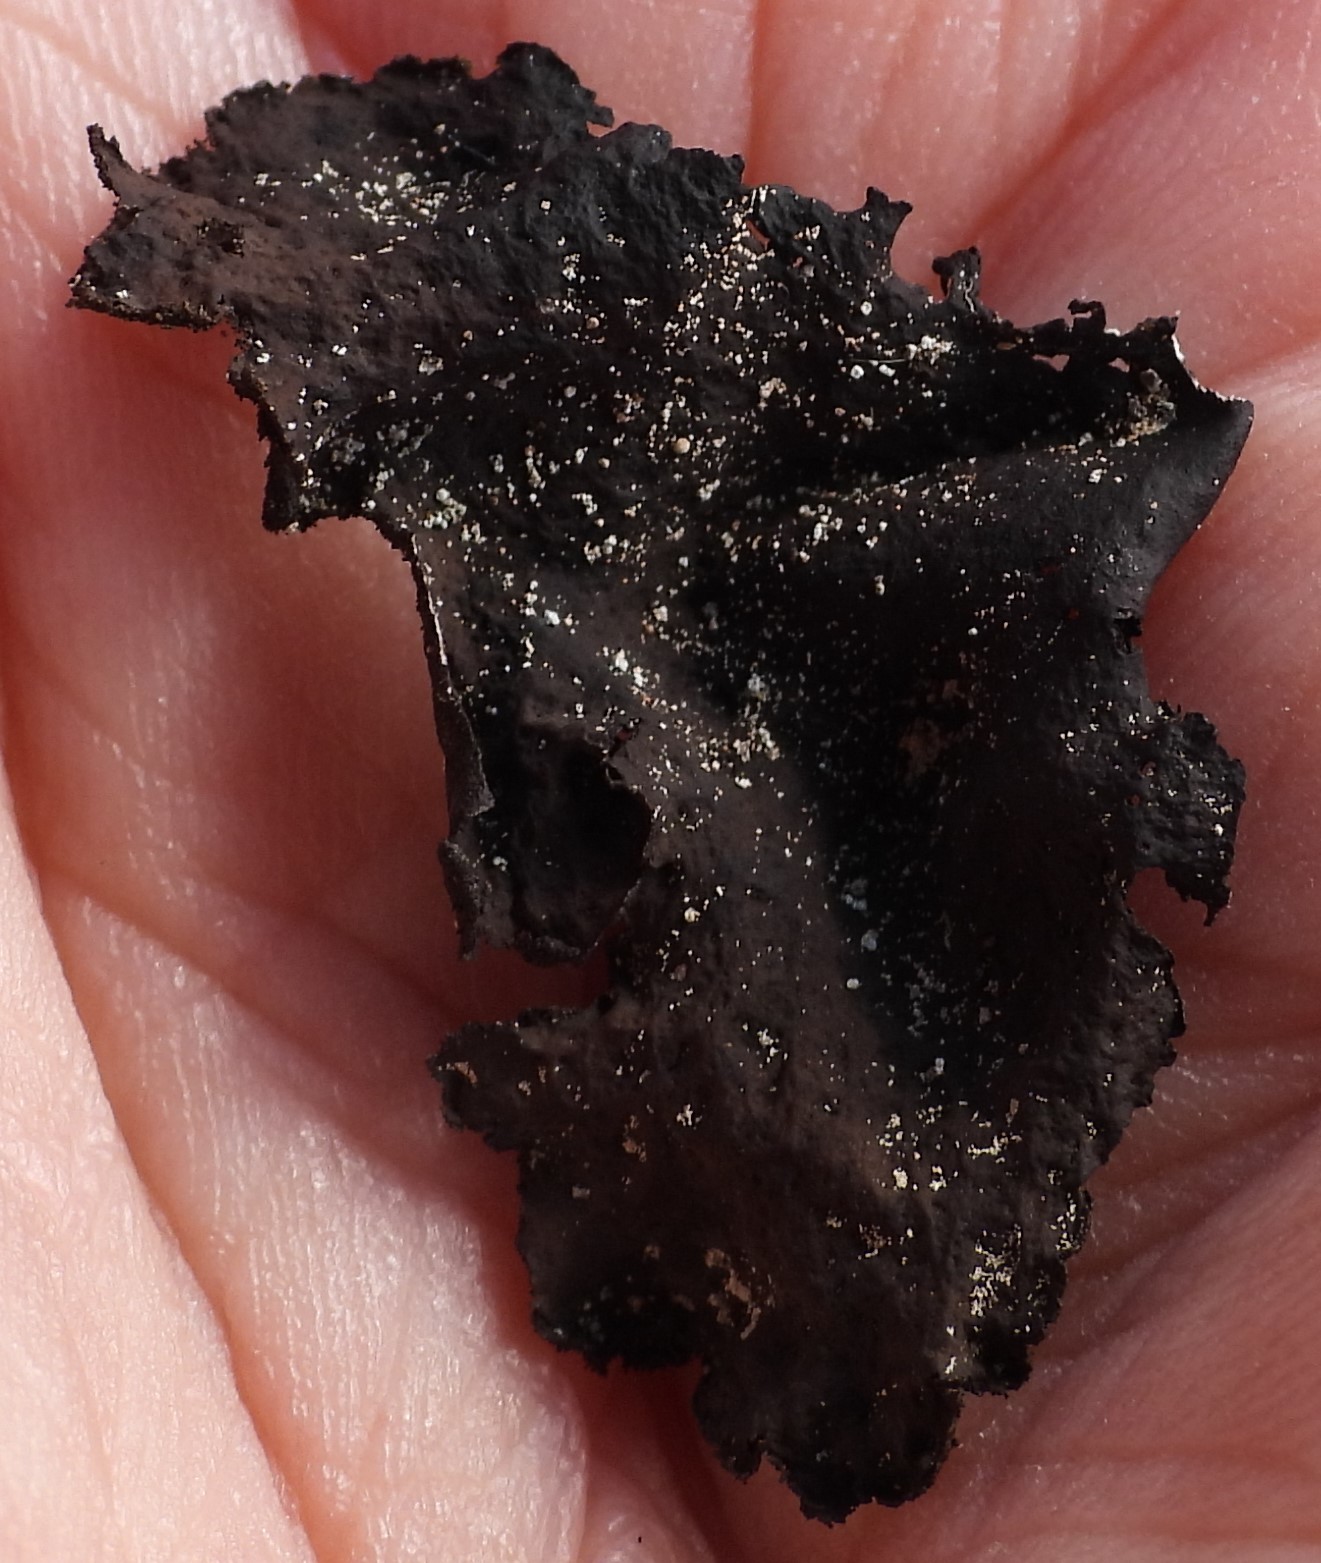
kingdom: Fungi
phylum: Ascomycota
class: Lecanoromycetes
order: Umbilicariales
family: Umbilicariaceae
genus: Umbilicaria
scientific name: Umbilicaria deusta
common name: Peppered rock tripe
